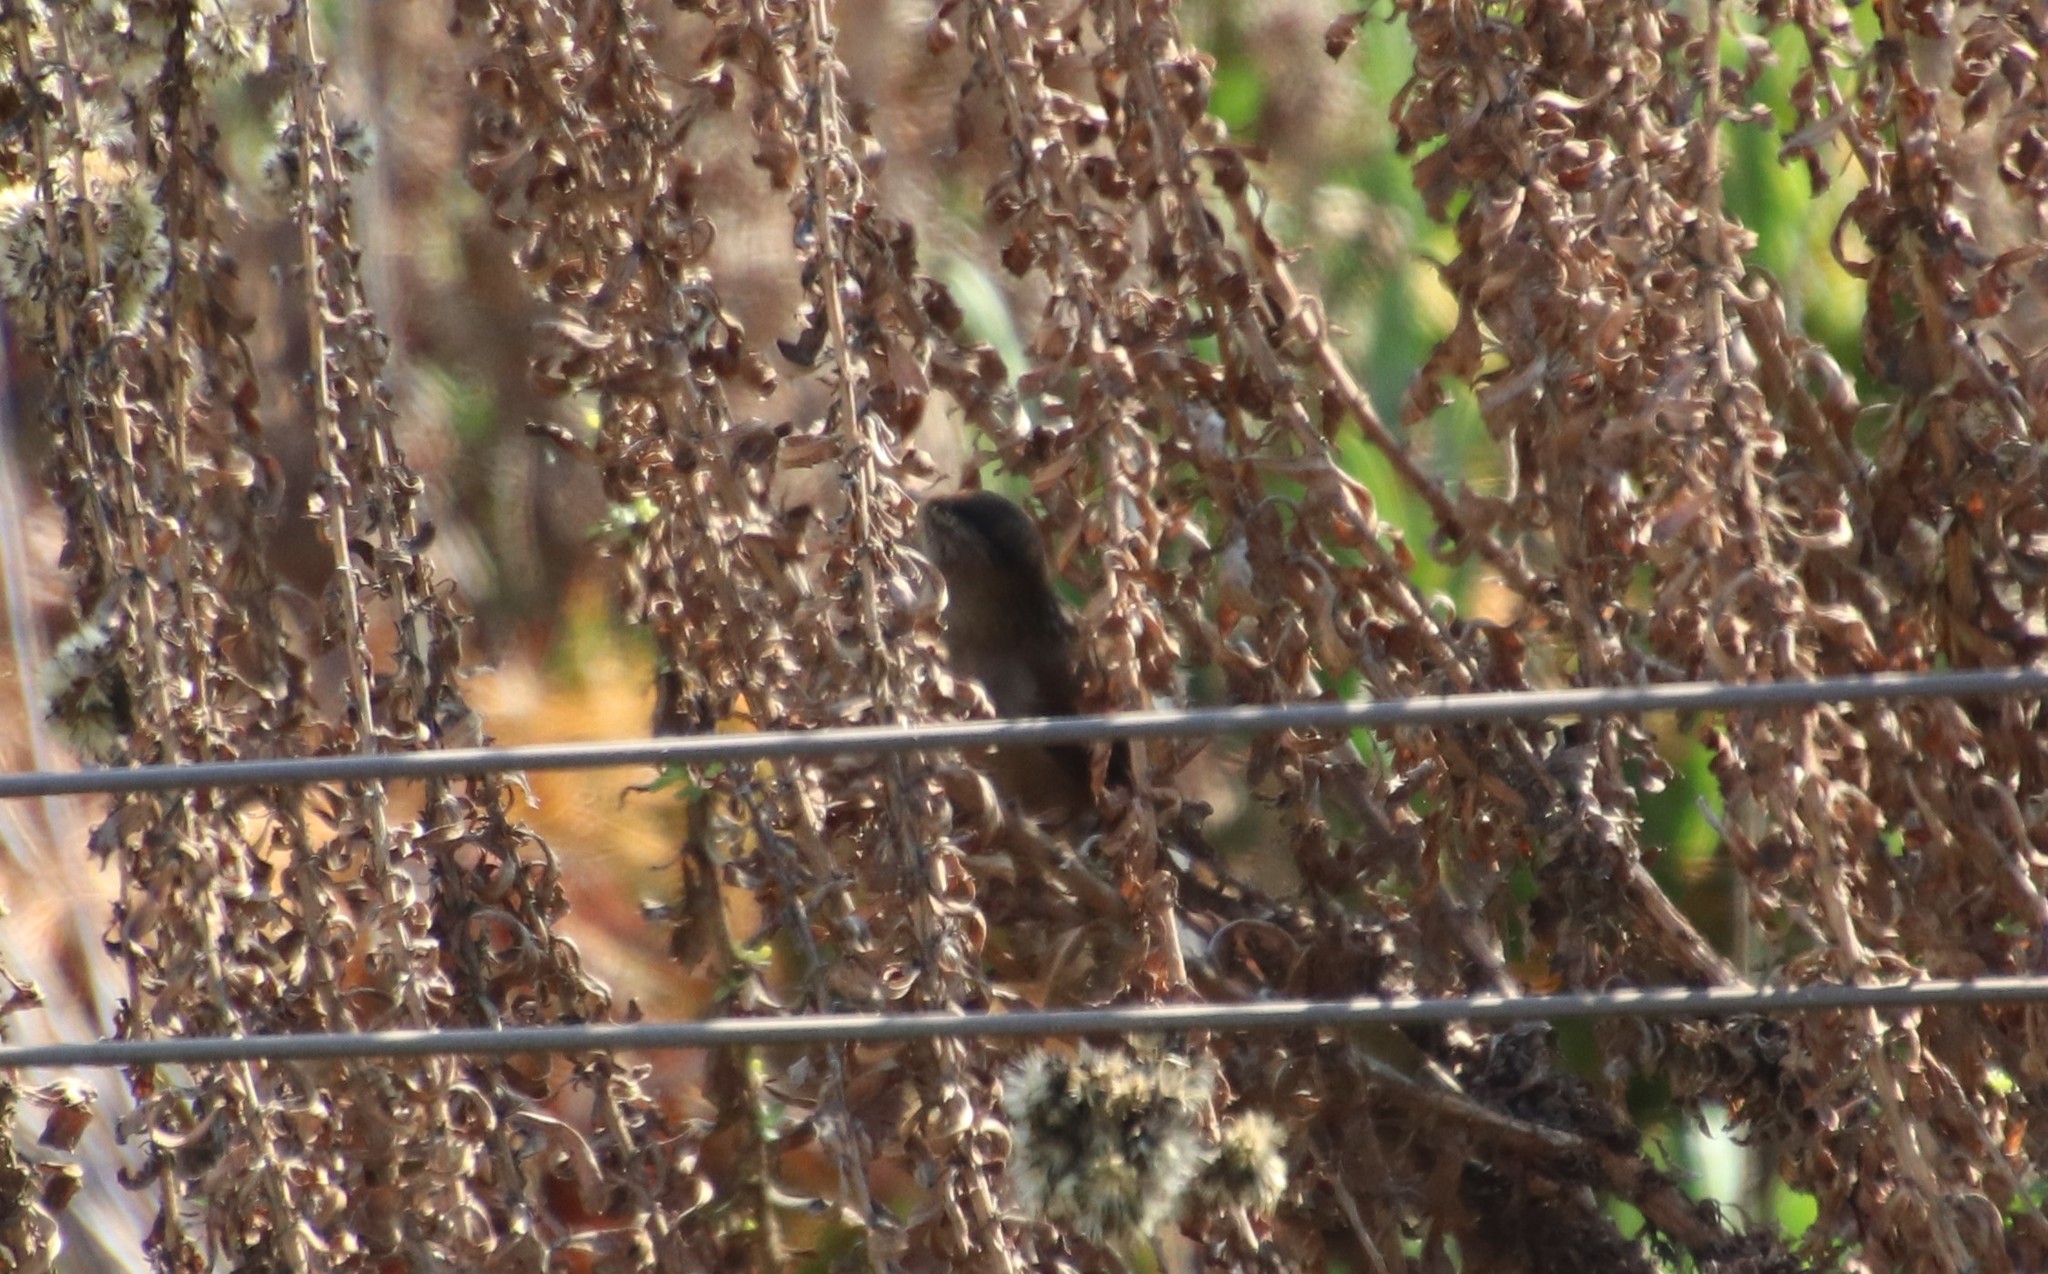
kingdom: Animalia
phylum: Chordata
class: Aves
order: Passeriformes
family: Troglodytidae
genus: Cistothorus
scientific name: Cistothorus palustris
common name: Marsh wren
